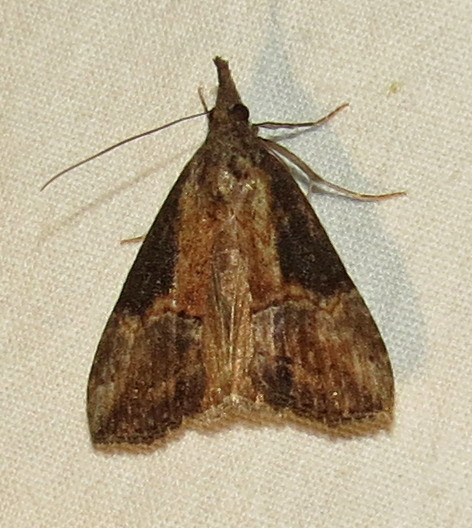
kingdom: Animalia
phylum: Arthropoda
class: Insecta
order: Lepidoptera
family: Erebidae
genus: Hypena
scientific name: Hypena scabra
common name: Green cloverworm
